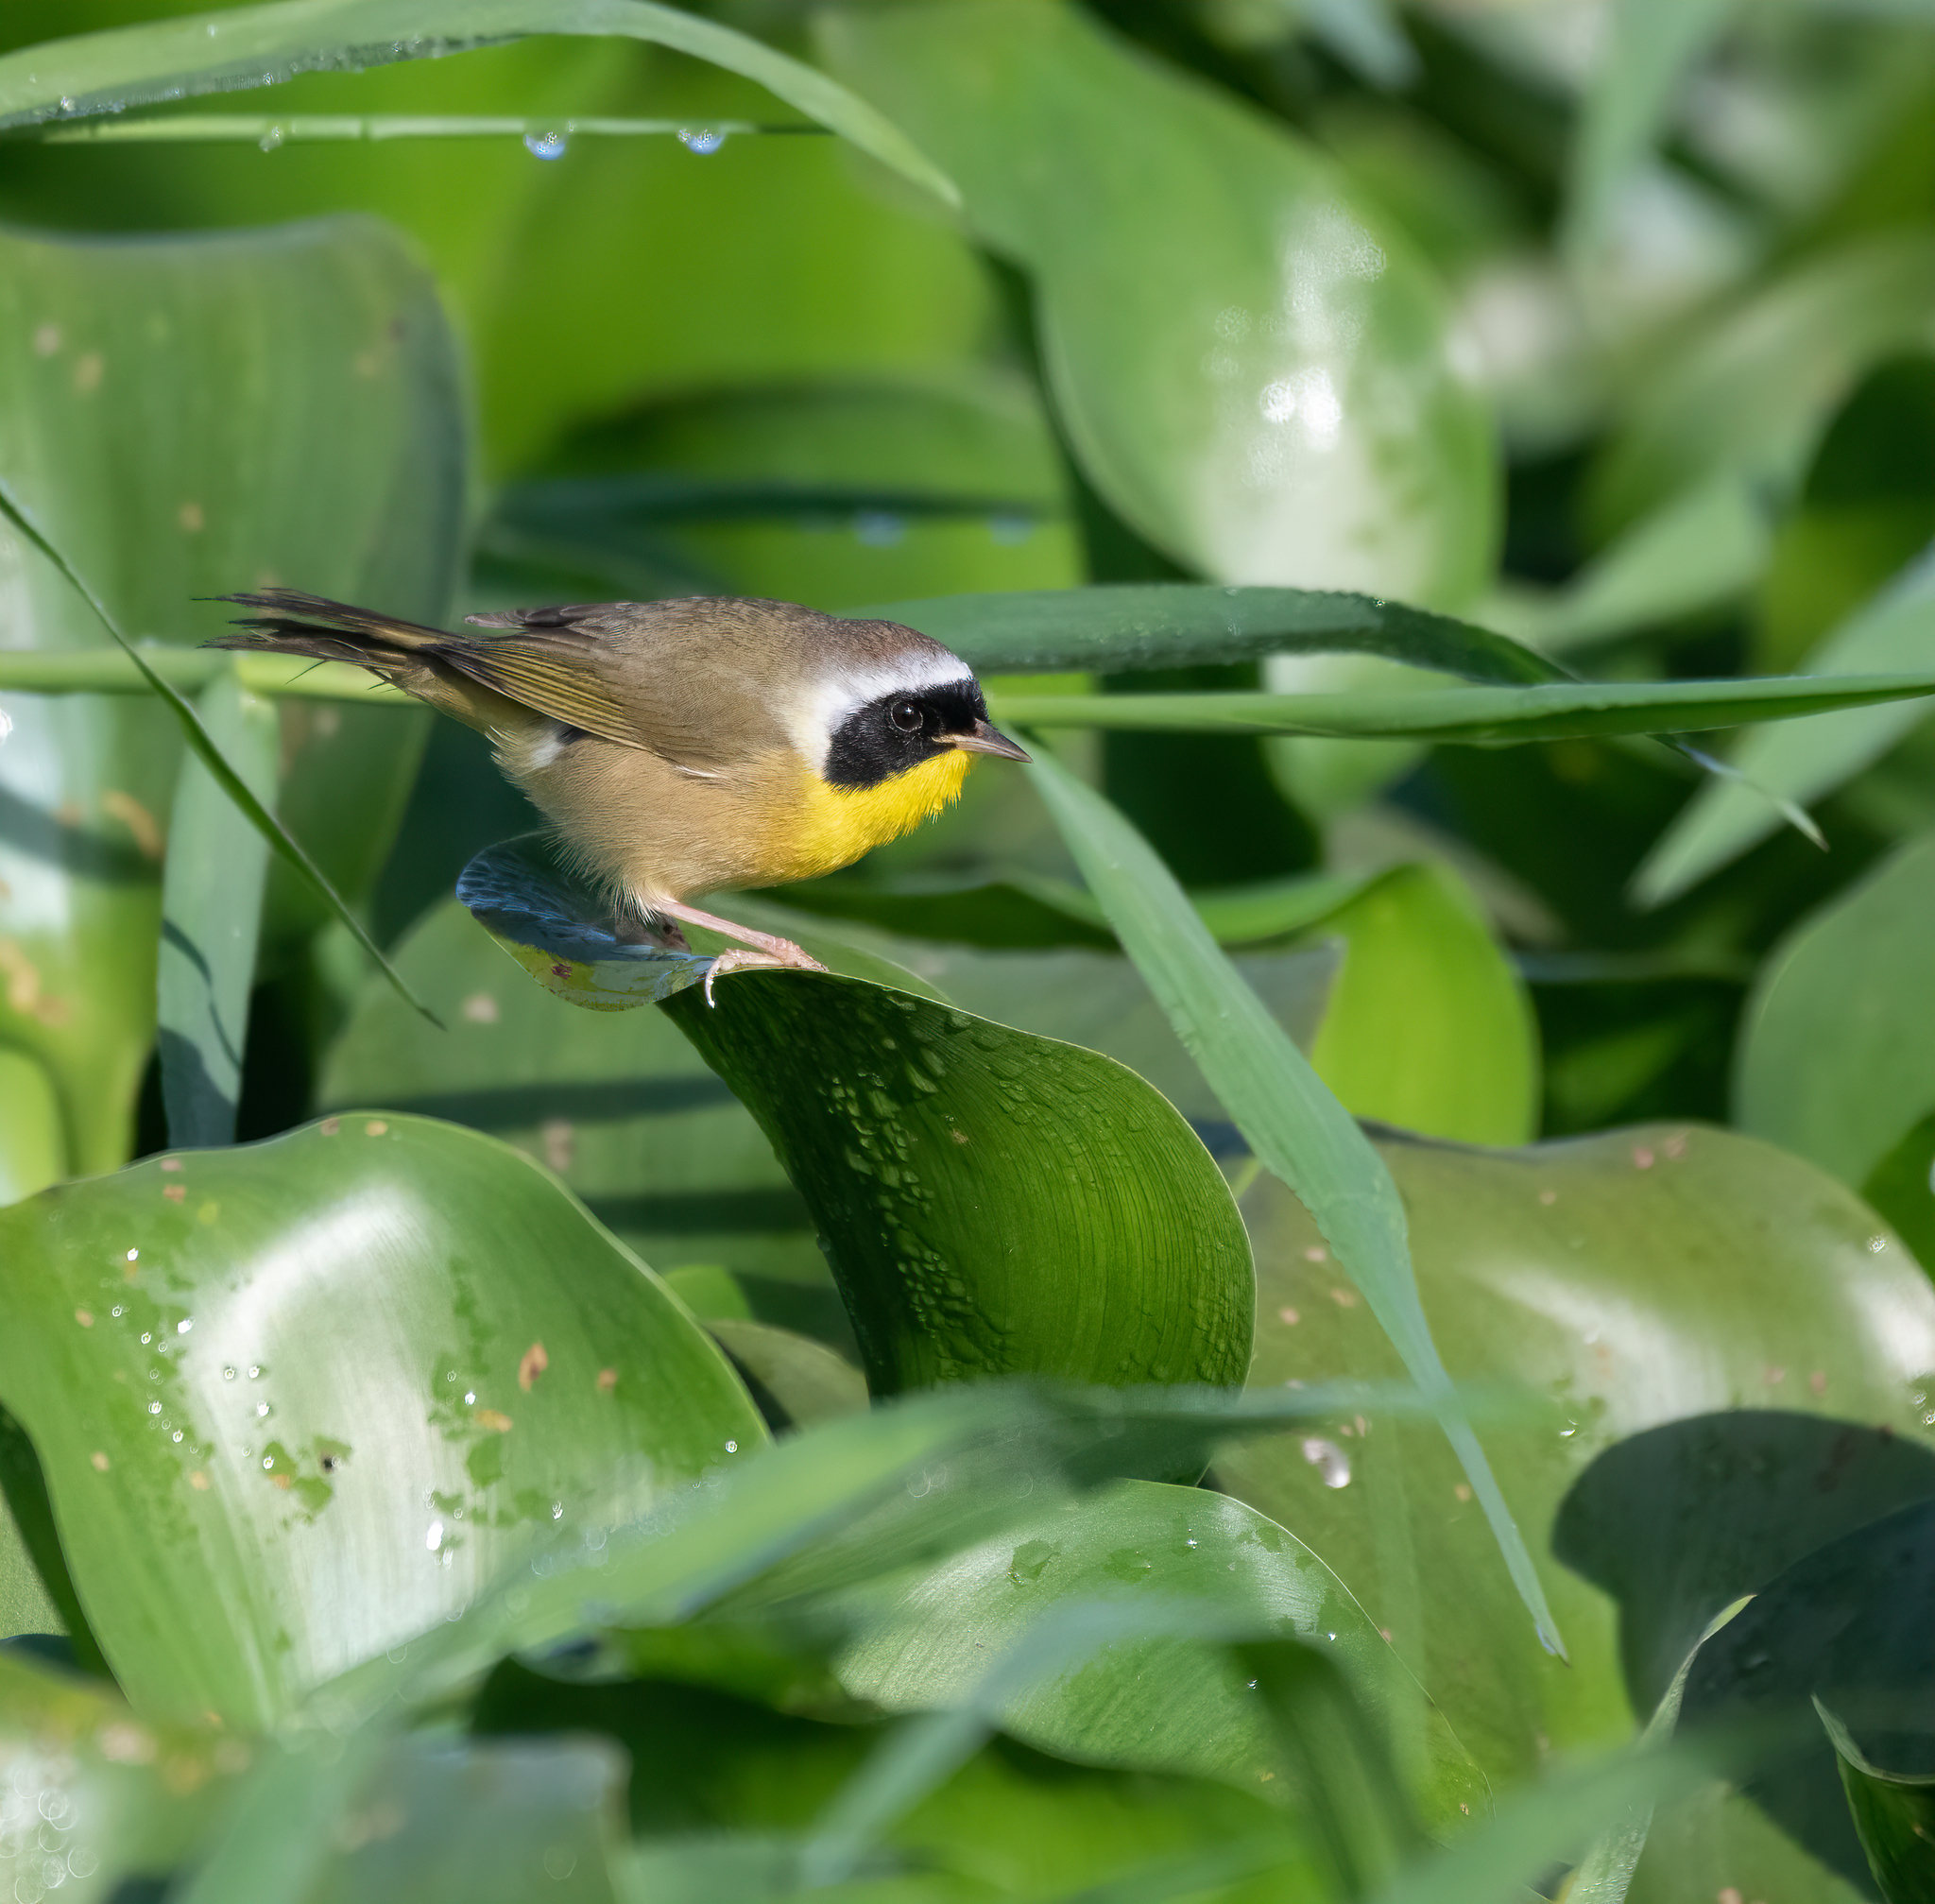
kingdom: Animalia
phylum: Chordata
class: Aves
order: Passeriformes
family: Parulidae
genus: Geothlypis
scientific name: Geothlypis trichas
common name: Common yellowthroat
